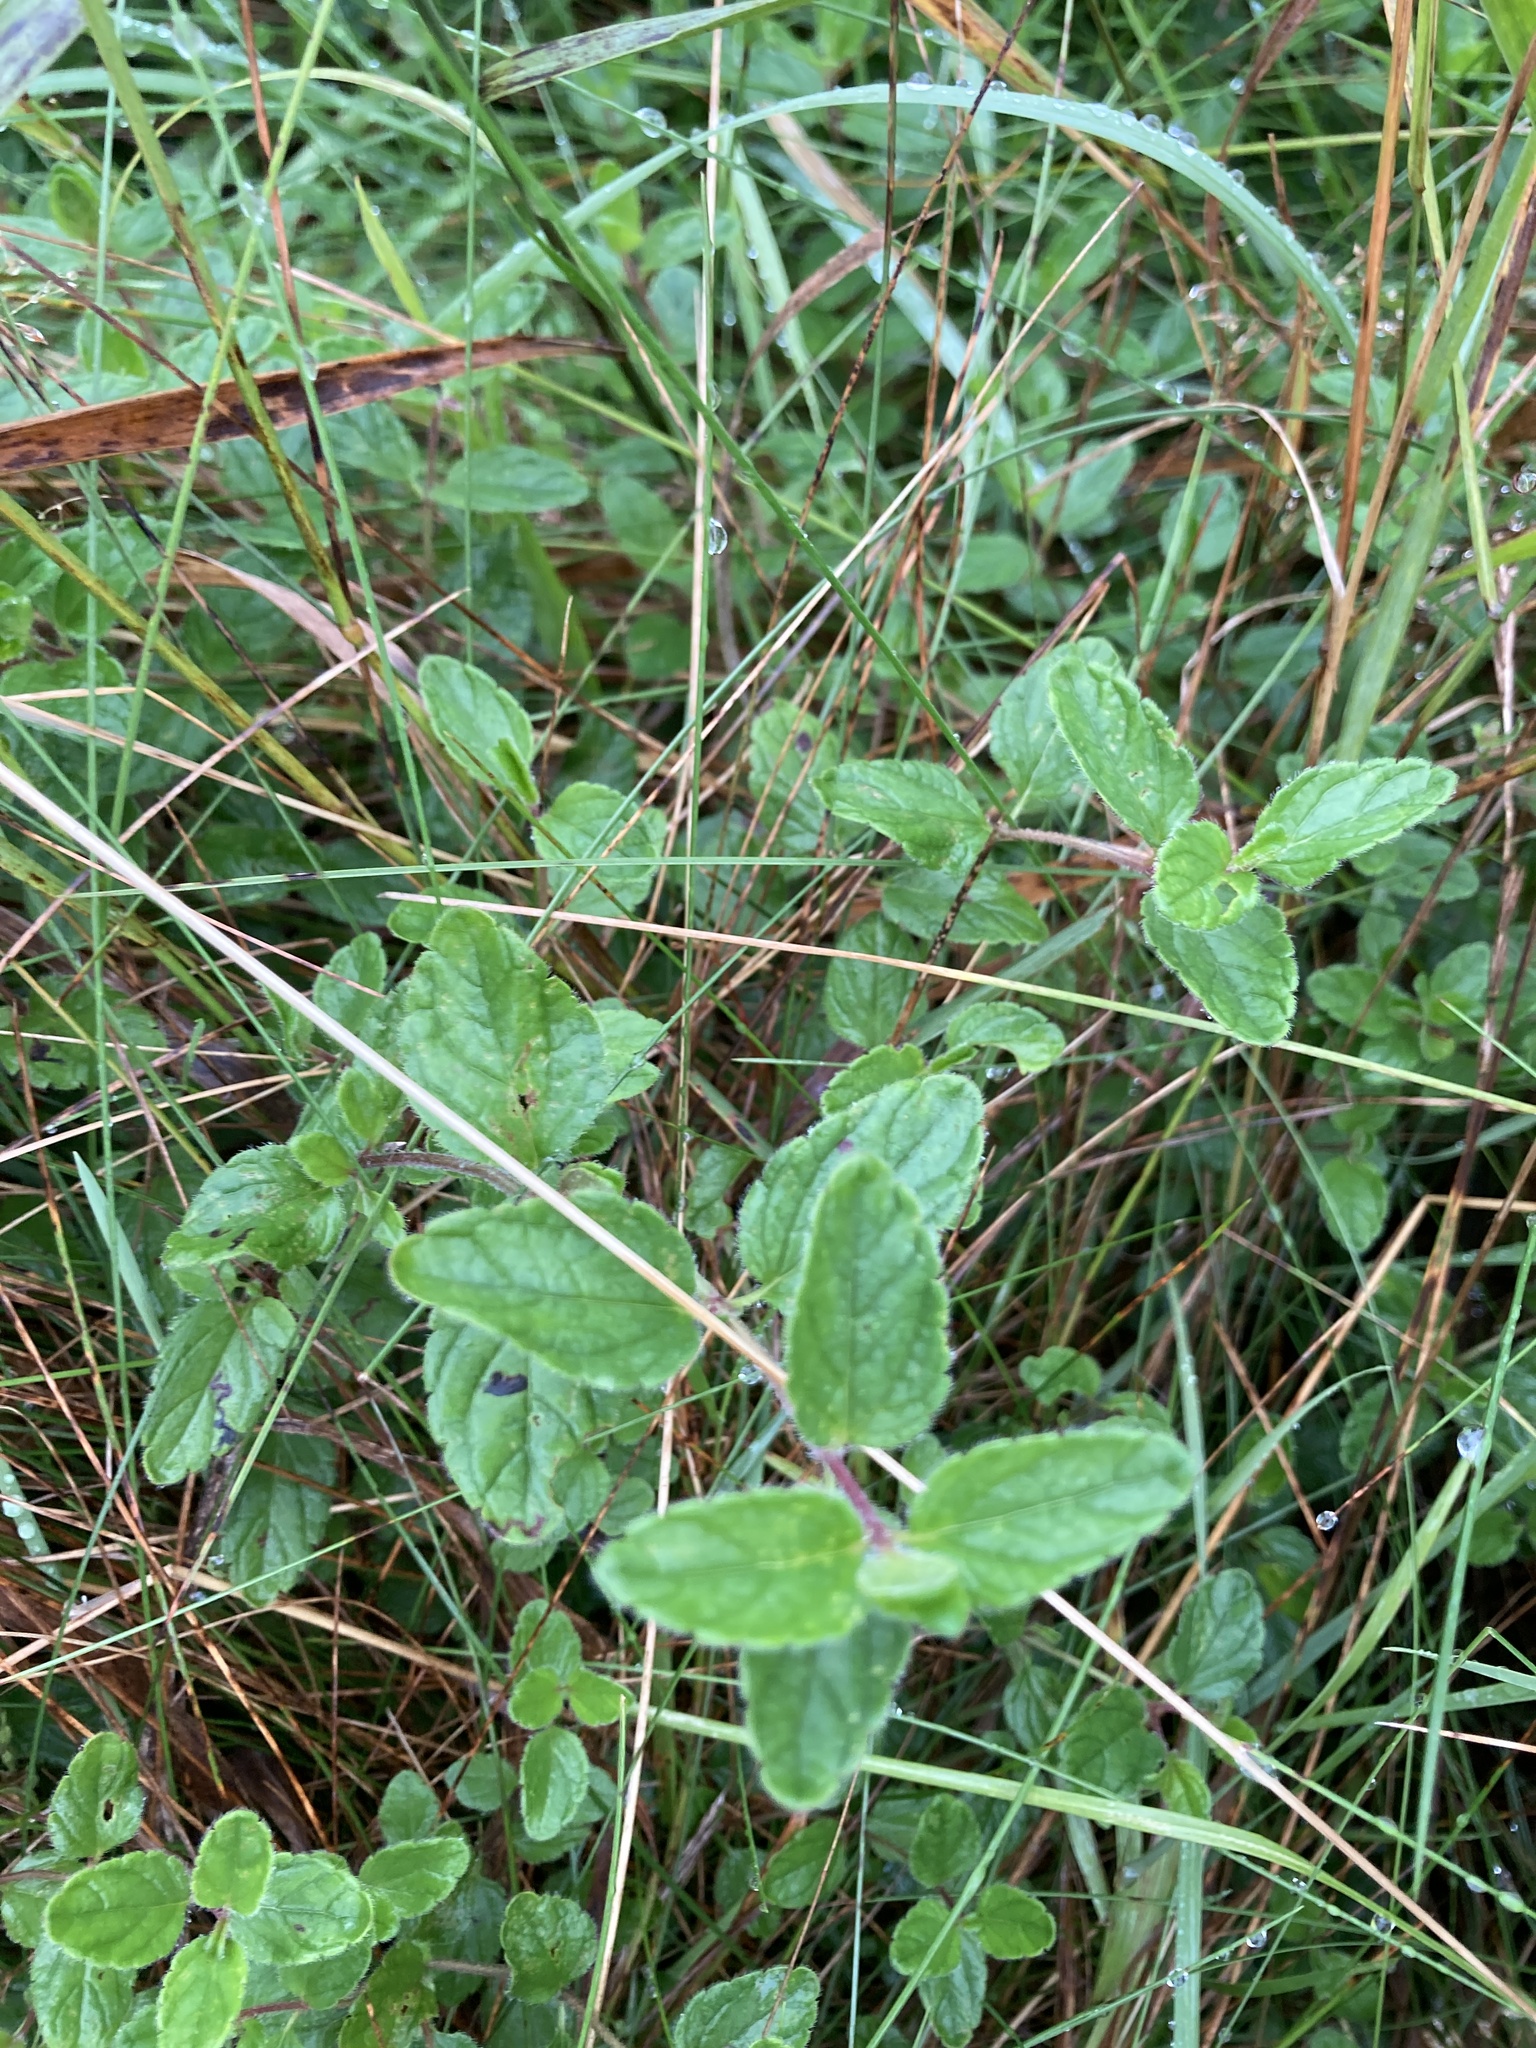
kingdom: Plantae
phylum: Tracheophyta
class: Magnoliopsida
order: Lamiales
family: Plantaginaceae
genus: Veronica
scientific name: Veronica chamaedrys
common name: Germander speedwell
